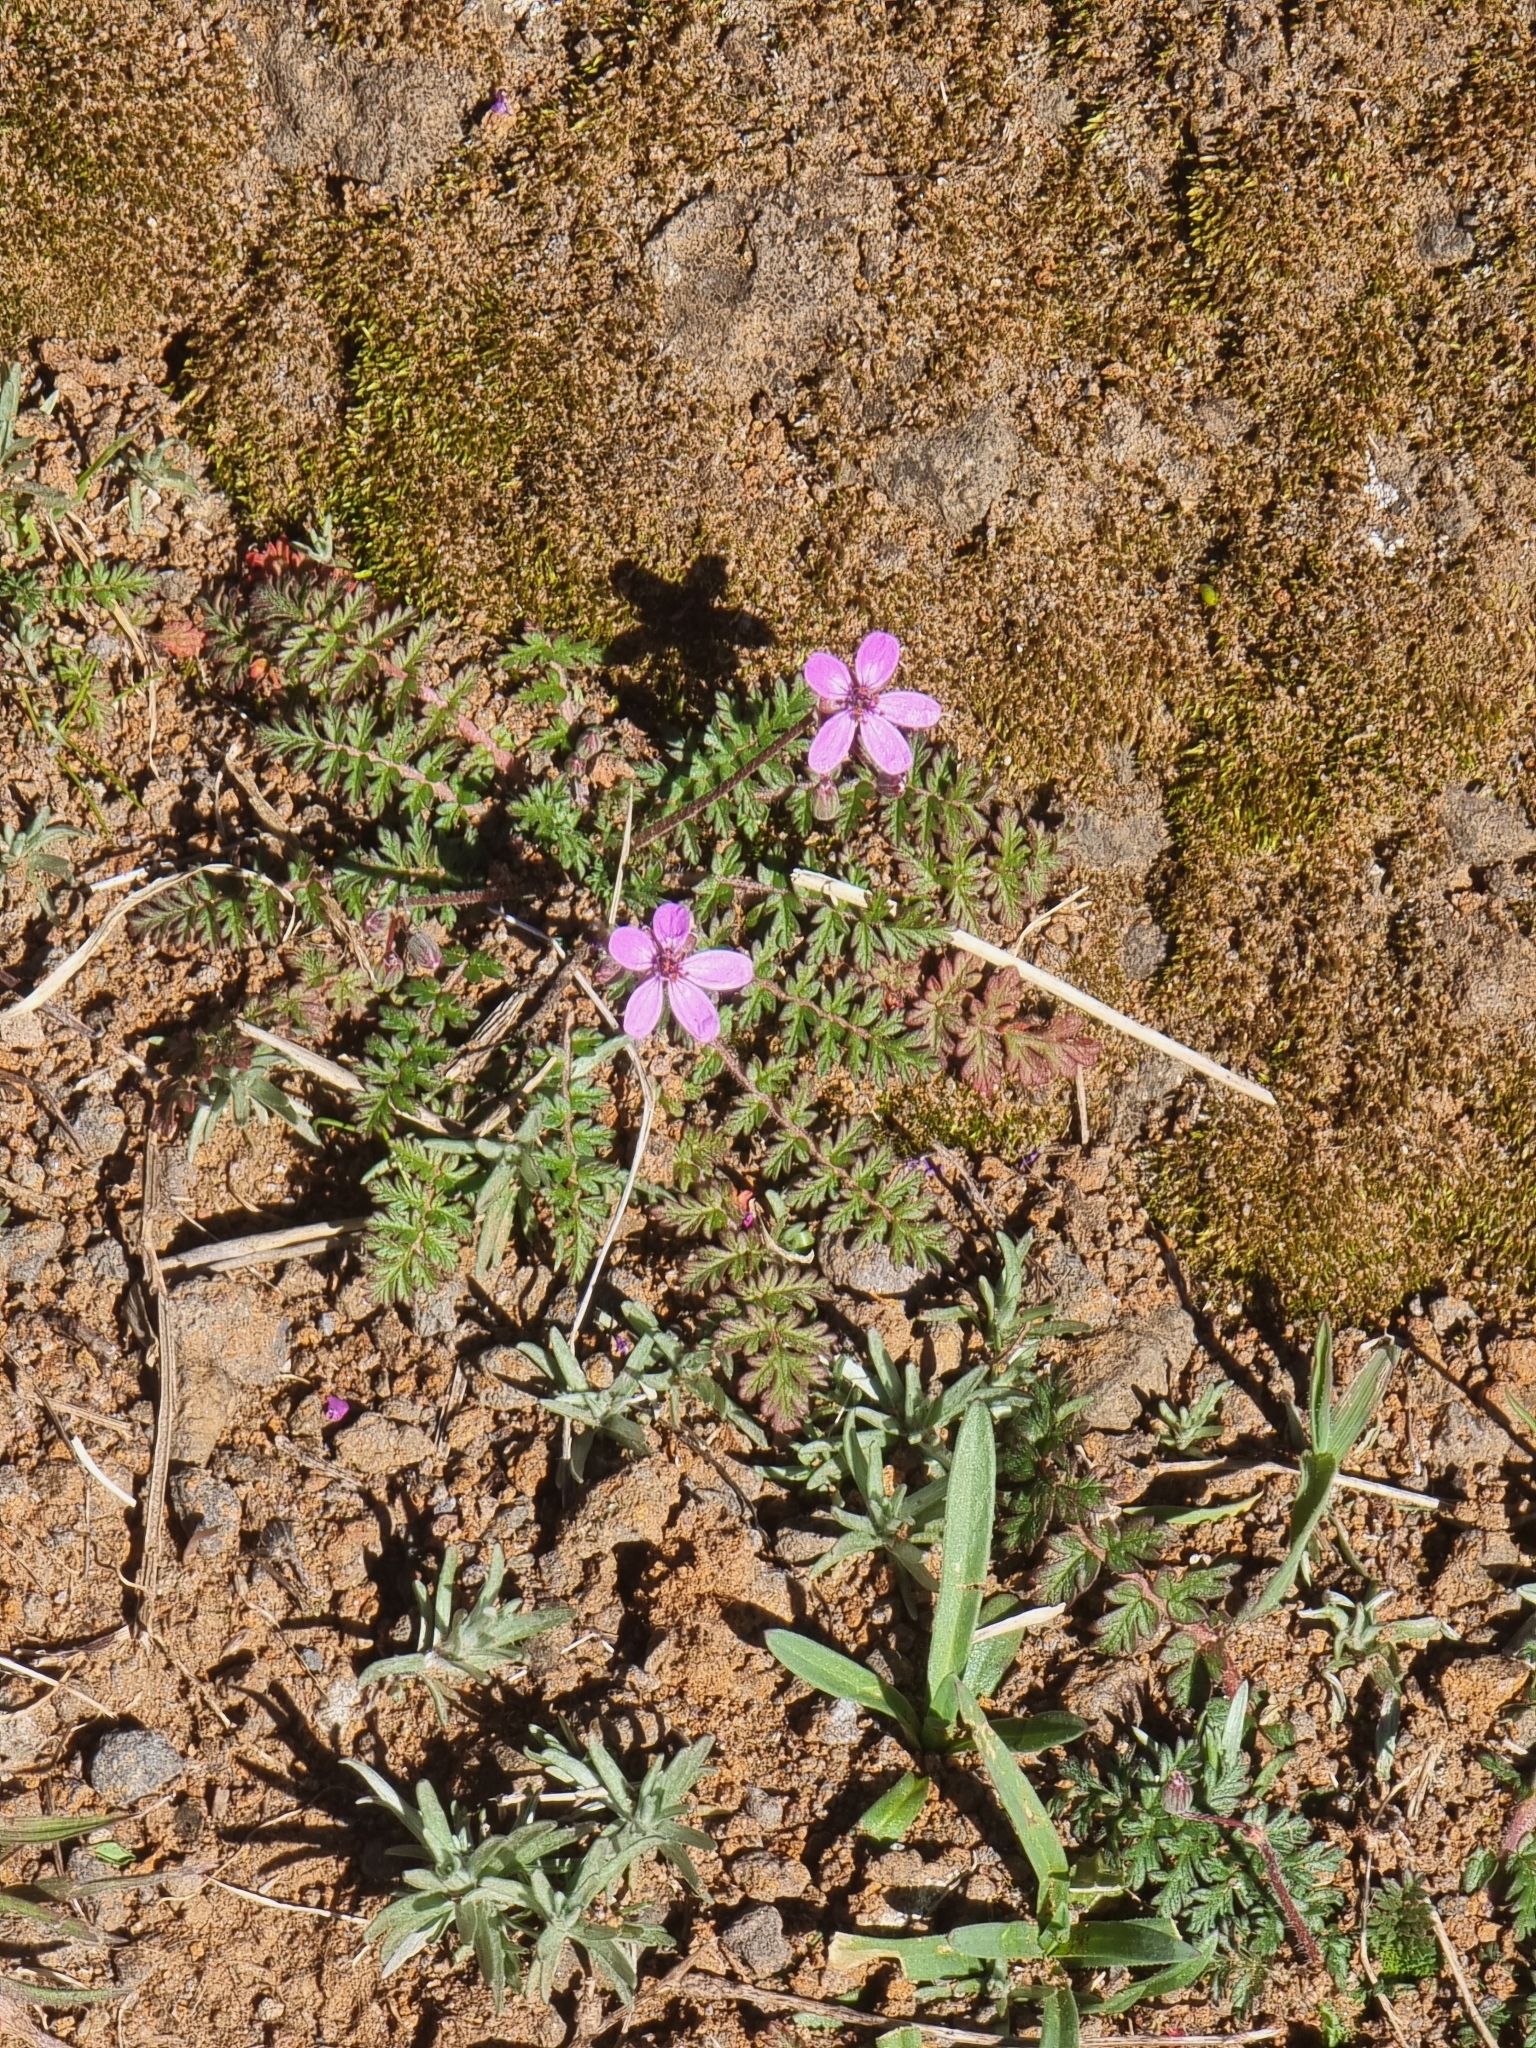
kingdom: Plantae
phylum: Tracheophyta
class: Magnoliopsida
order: Geraniales
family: Geraniaceae
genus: Erodium
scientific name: Erodium cicutarium
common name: Common stork's-bill
